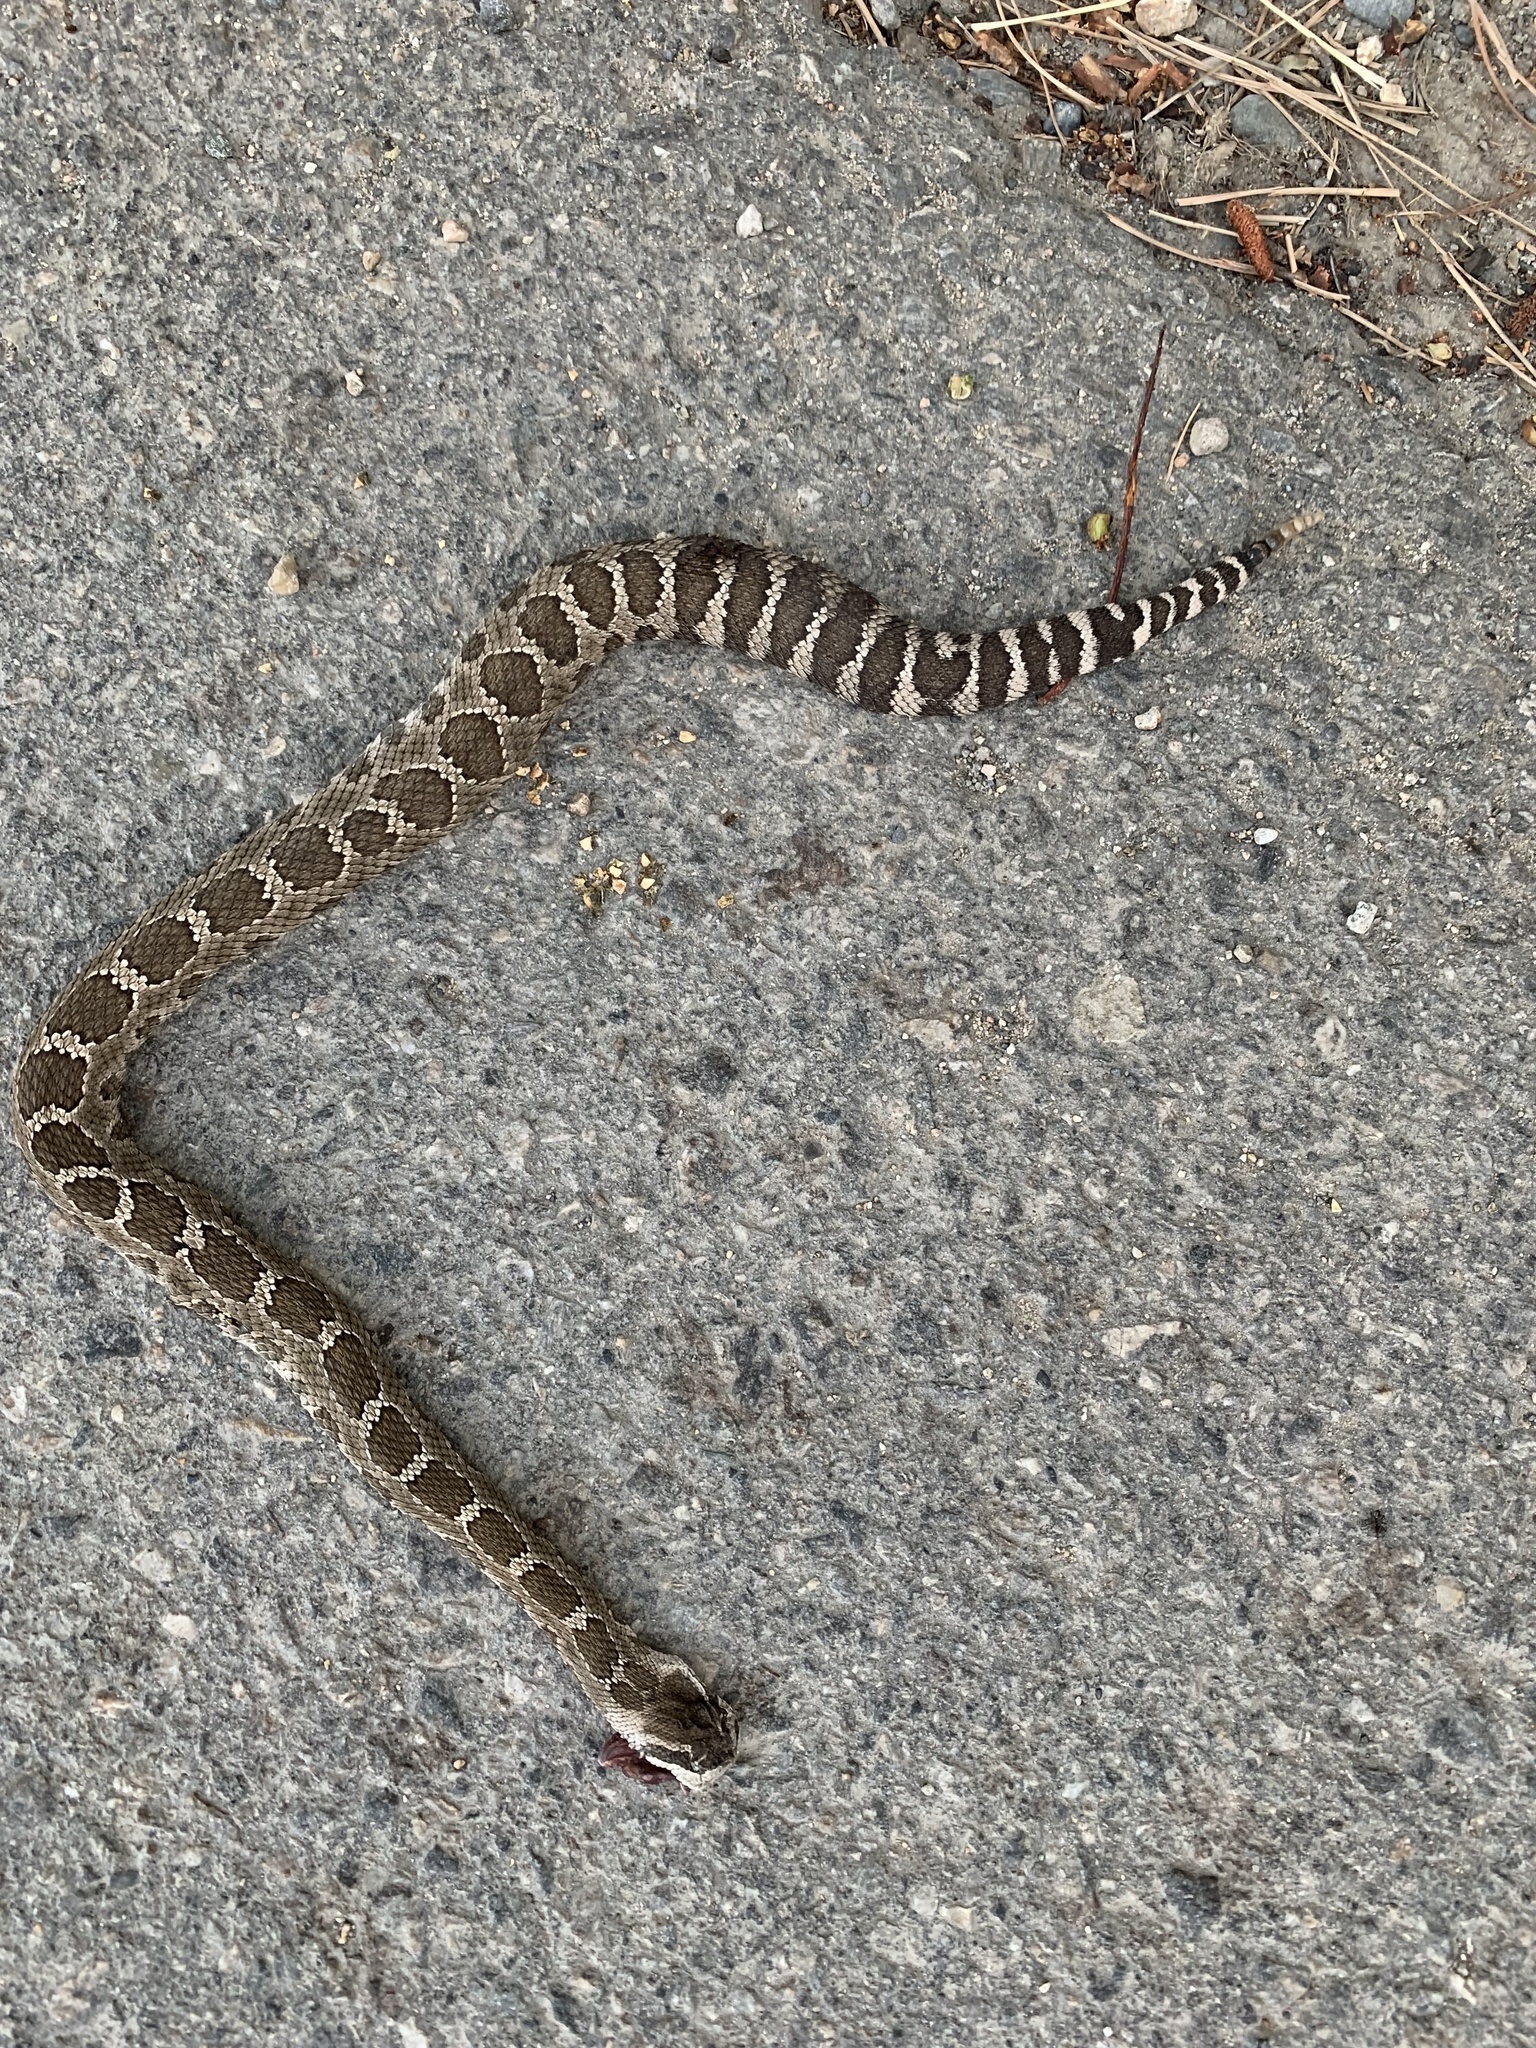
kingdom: Animalia
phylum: Chordata
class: Squamata
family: Viperidae
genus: Crotalus
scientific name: Crotalus oreganus
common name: Abyssus
